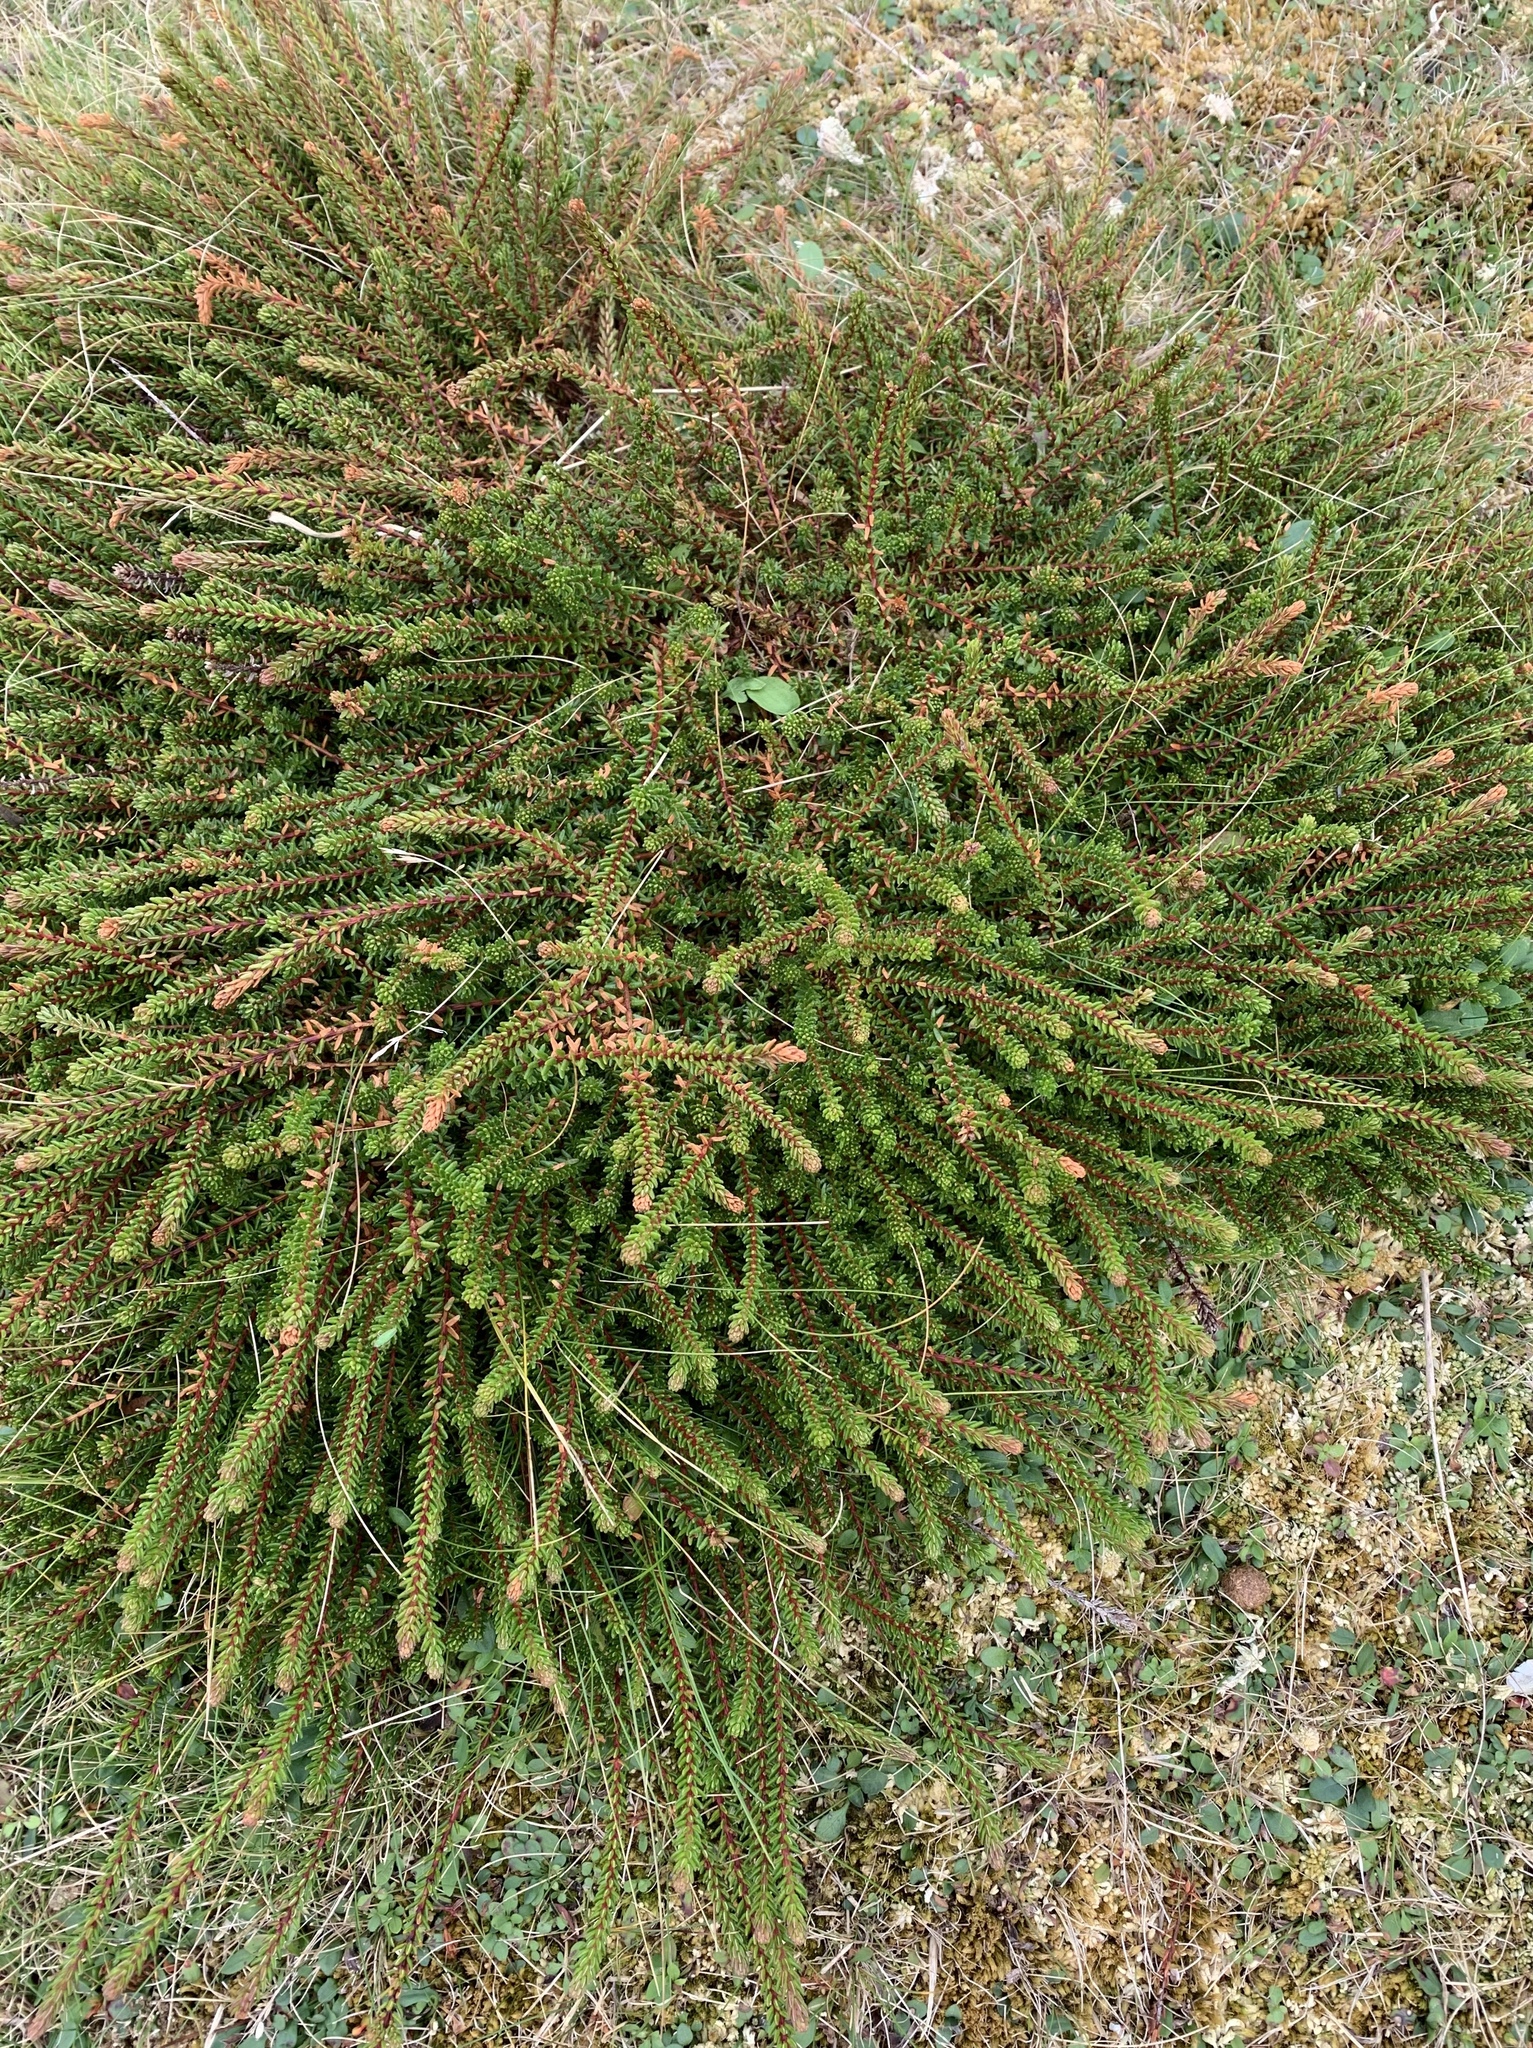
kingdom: Plantae
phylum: Tracheophyta
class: Magnoliopsida
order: Ericales
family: Ericaceae
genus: Empetrum
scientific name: Empetrum nigrum
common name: Black crowberry
